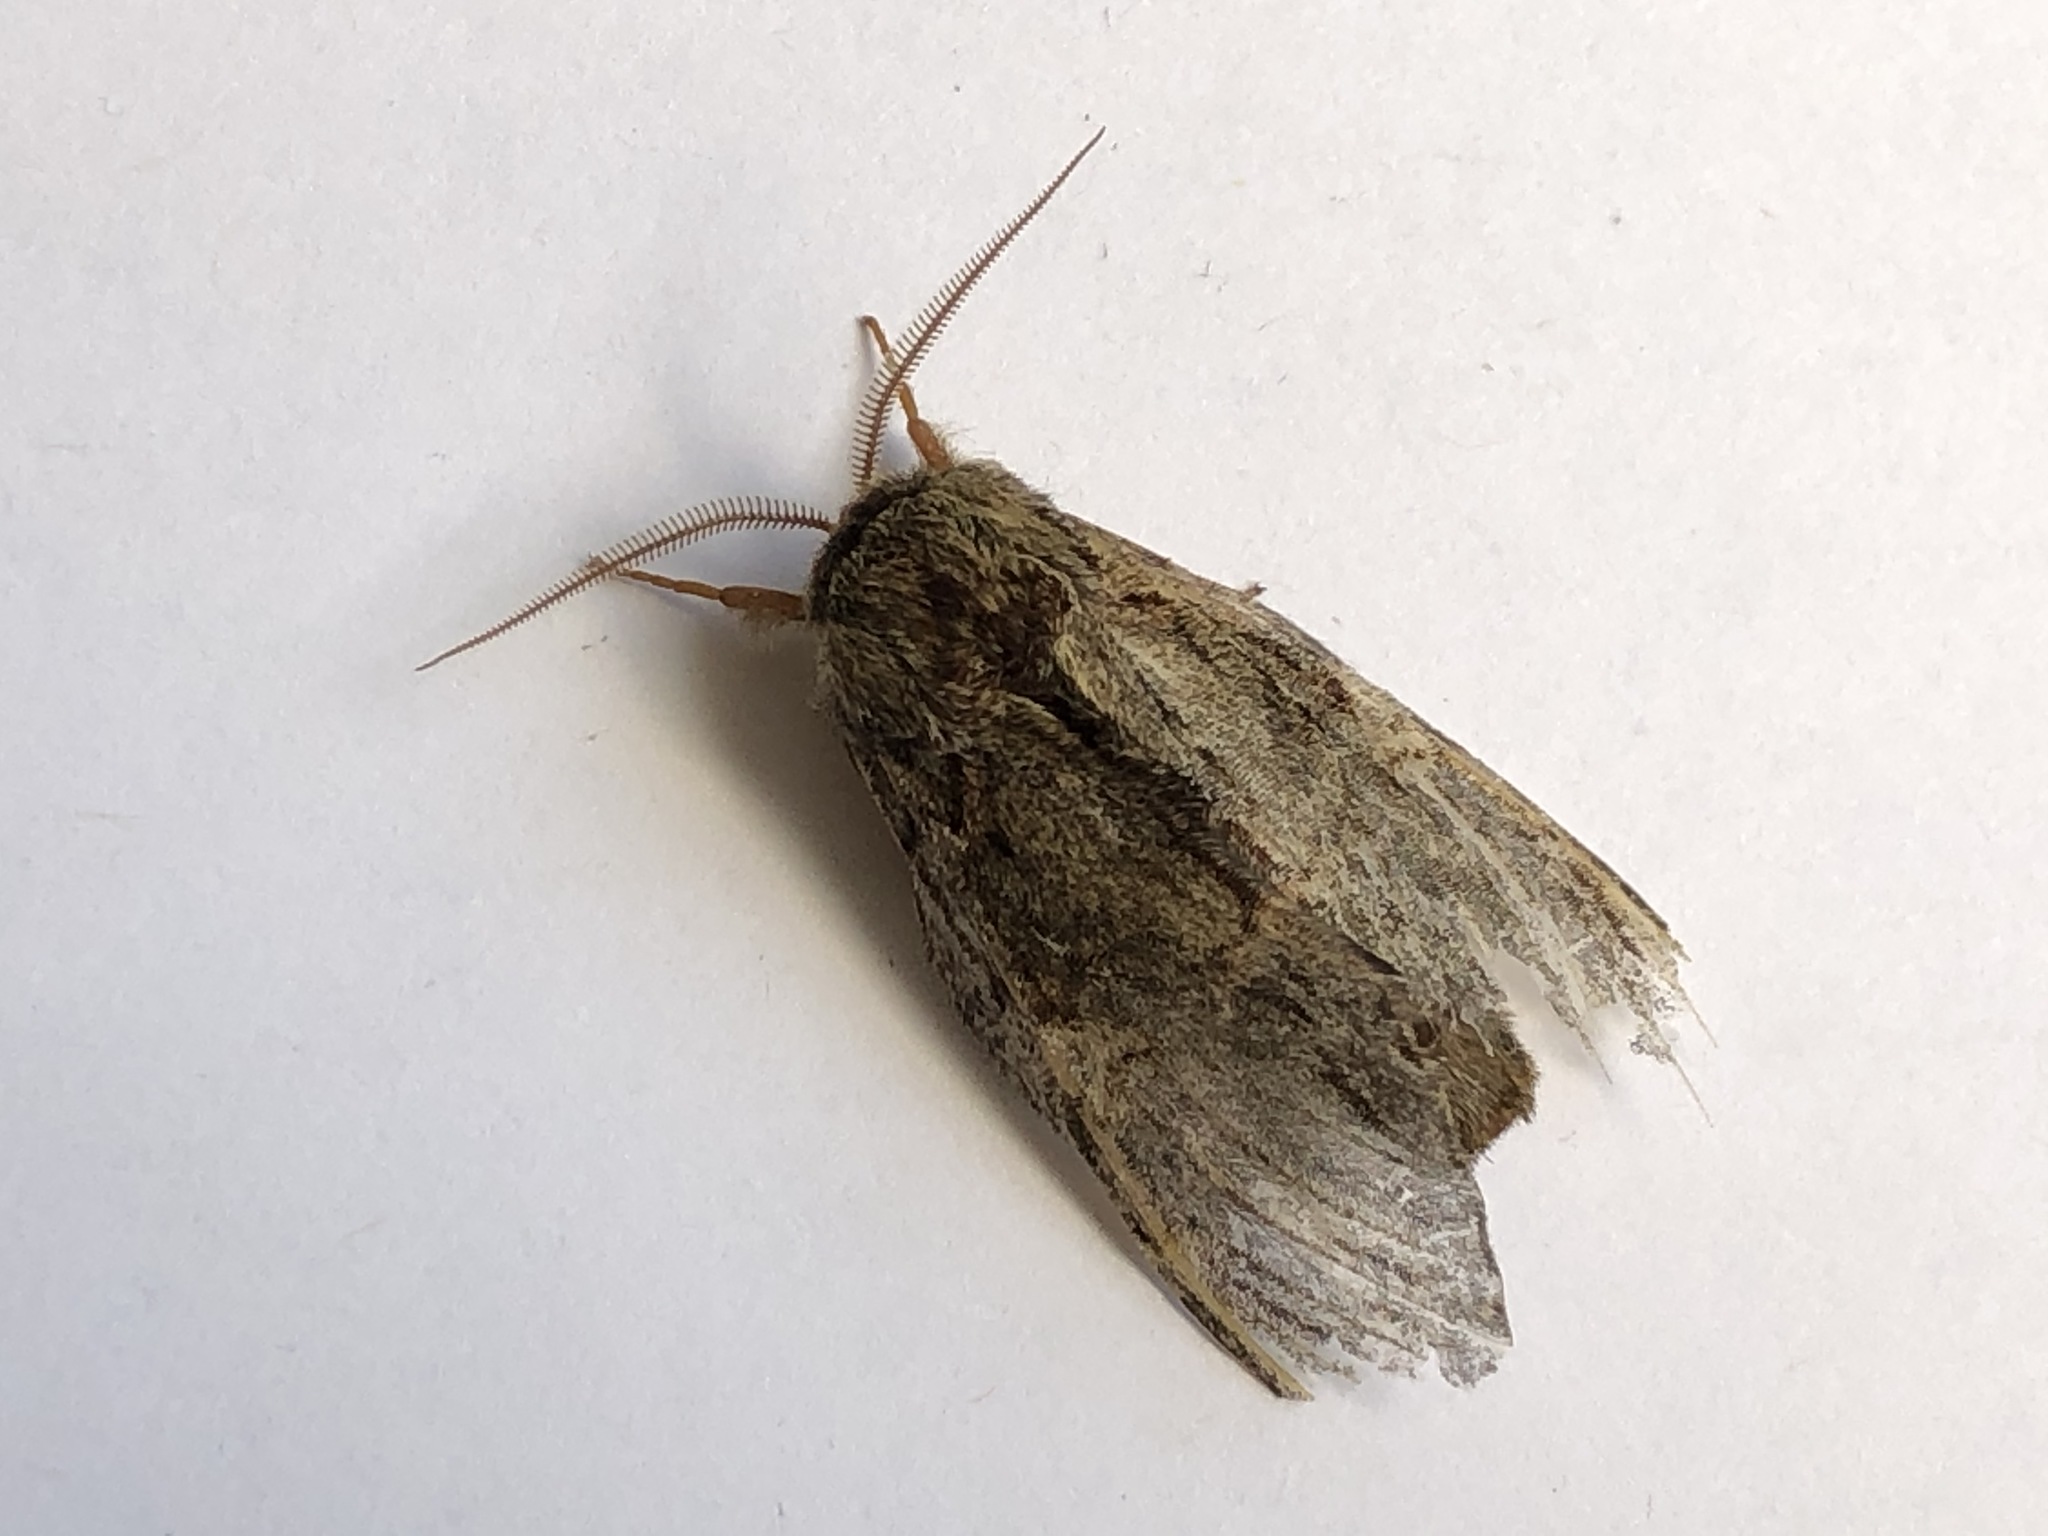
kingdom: Animalia
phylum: Arthropoda
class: Insecta
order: Lepidoptera
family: Notodontidae
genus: Peridea
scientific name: Peridea anceps
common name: Great prominent
